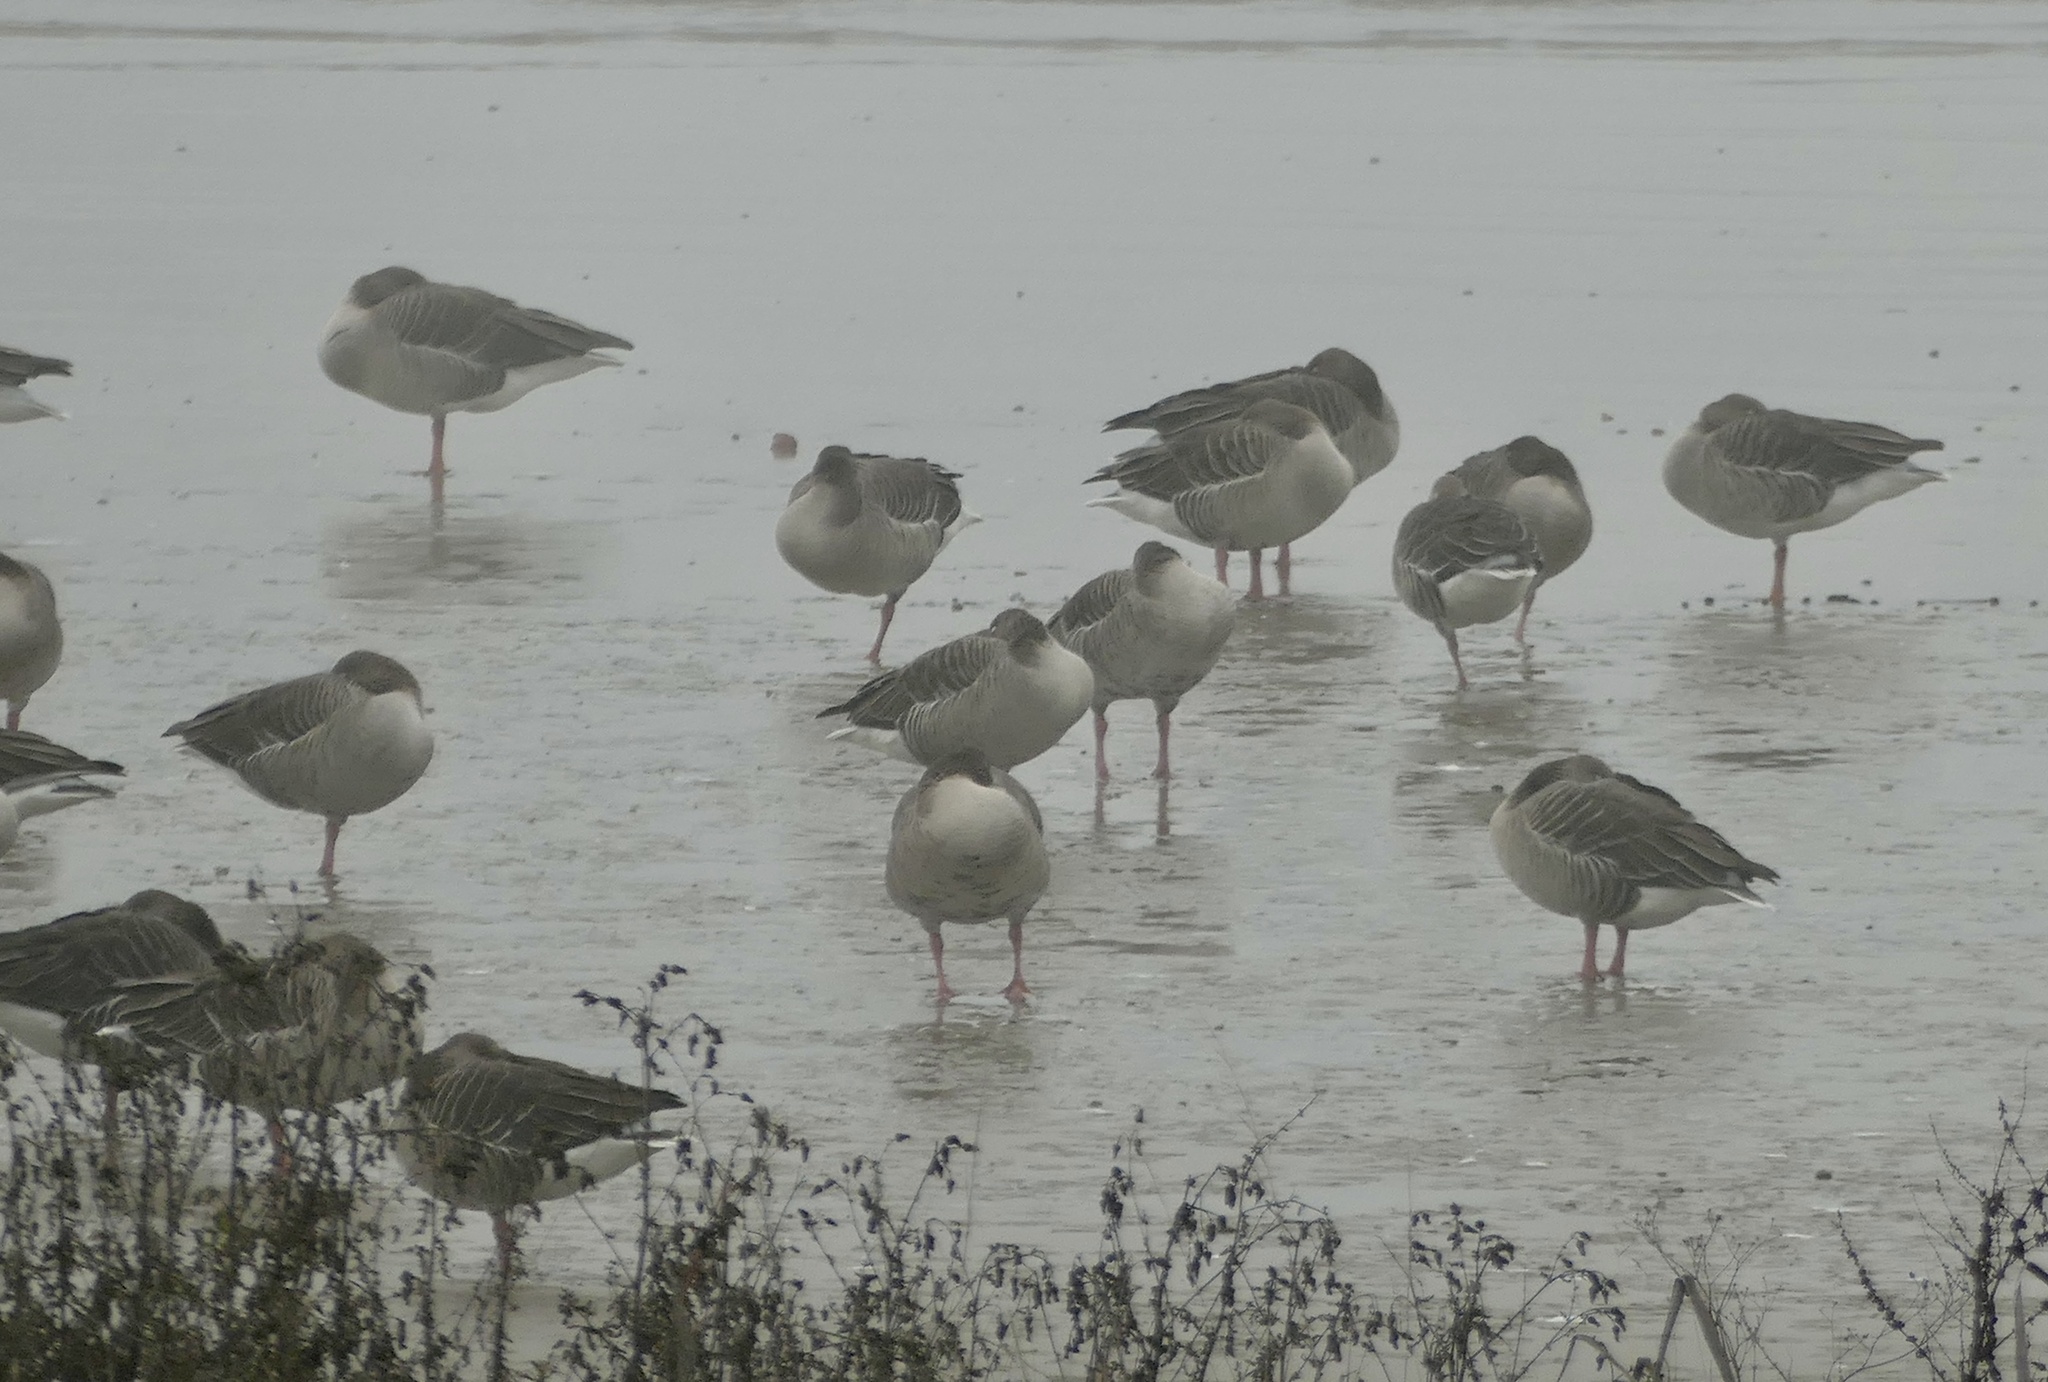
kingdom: Animalia
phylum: Chordata
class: Aves
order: Anseriformes
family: Anatidae
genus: Anser
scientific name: Anser anser
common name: Greylag goose
